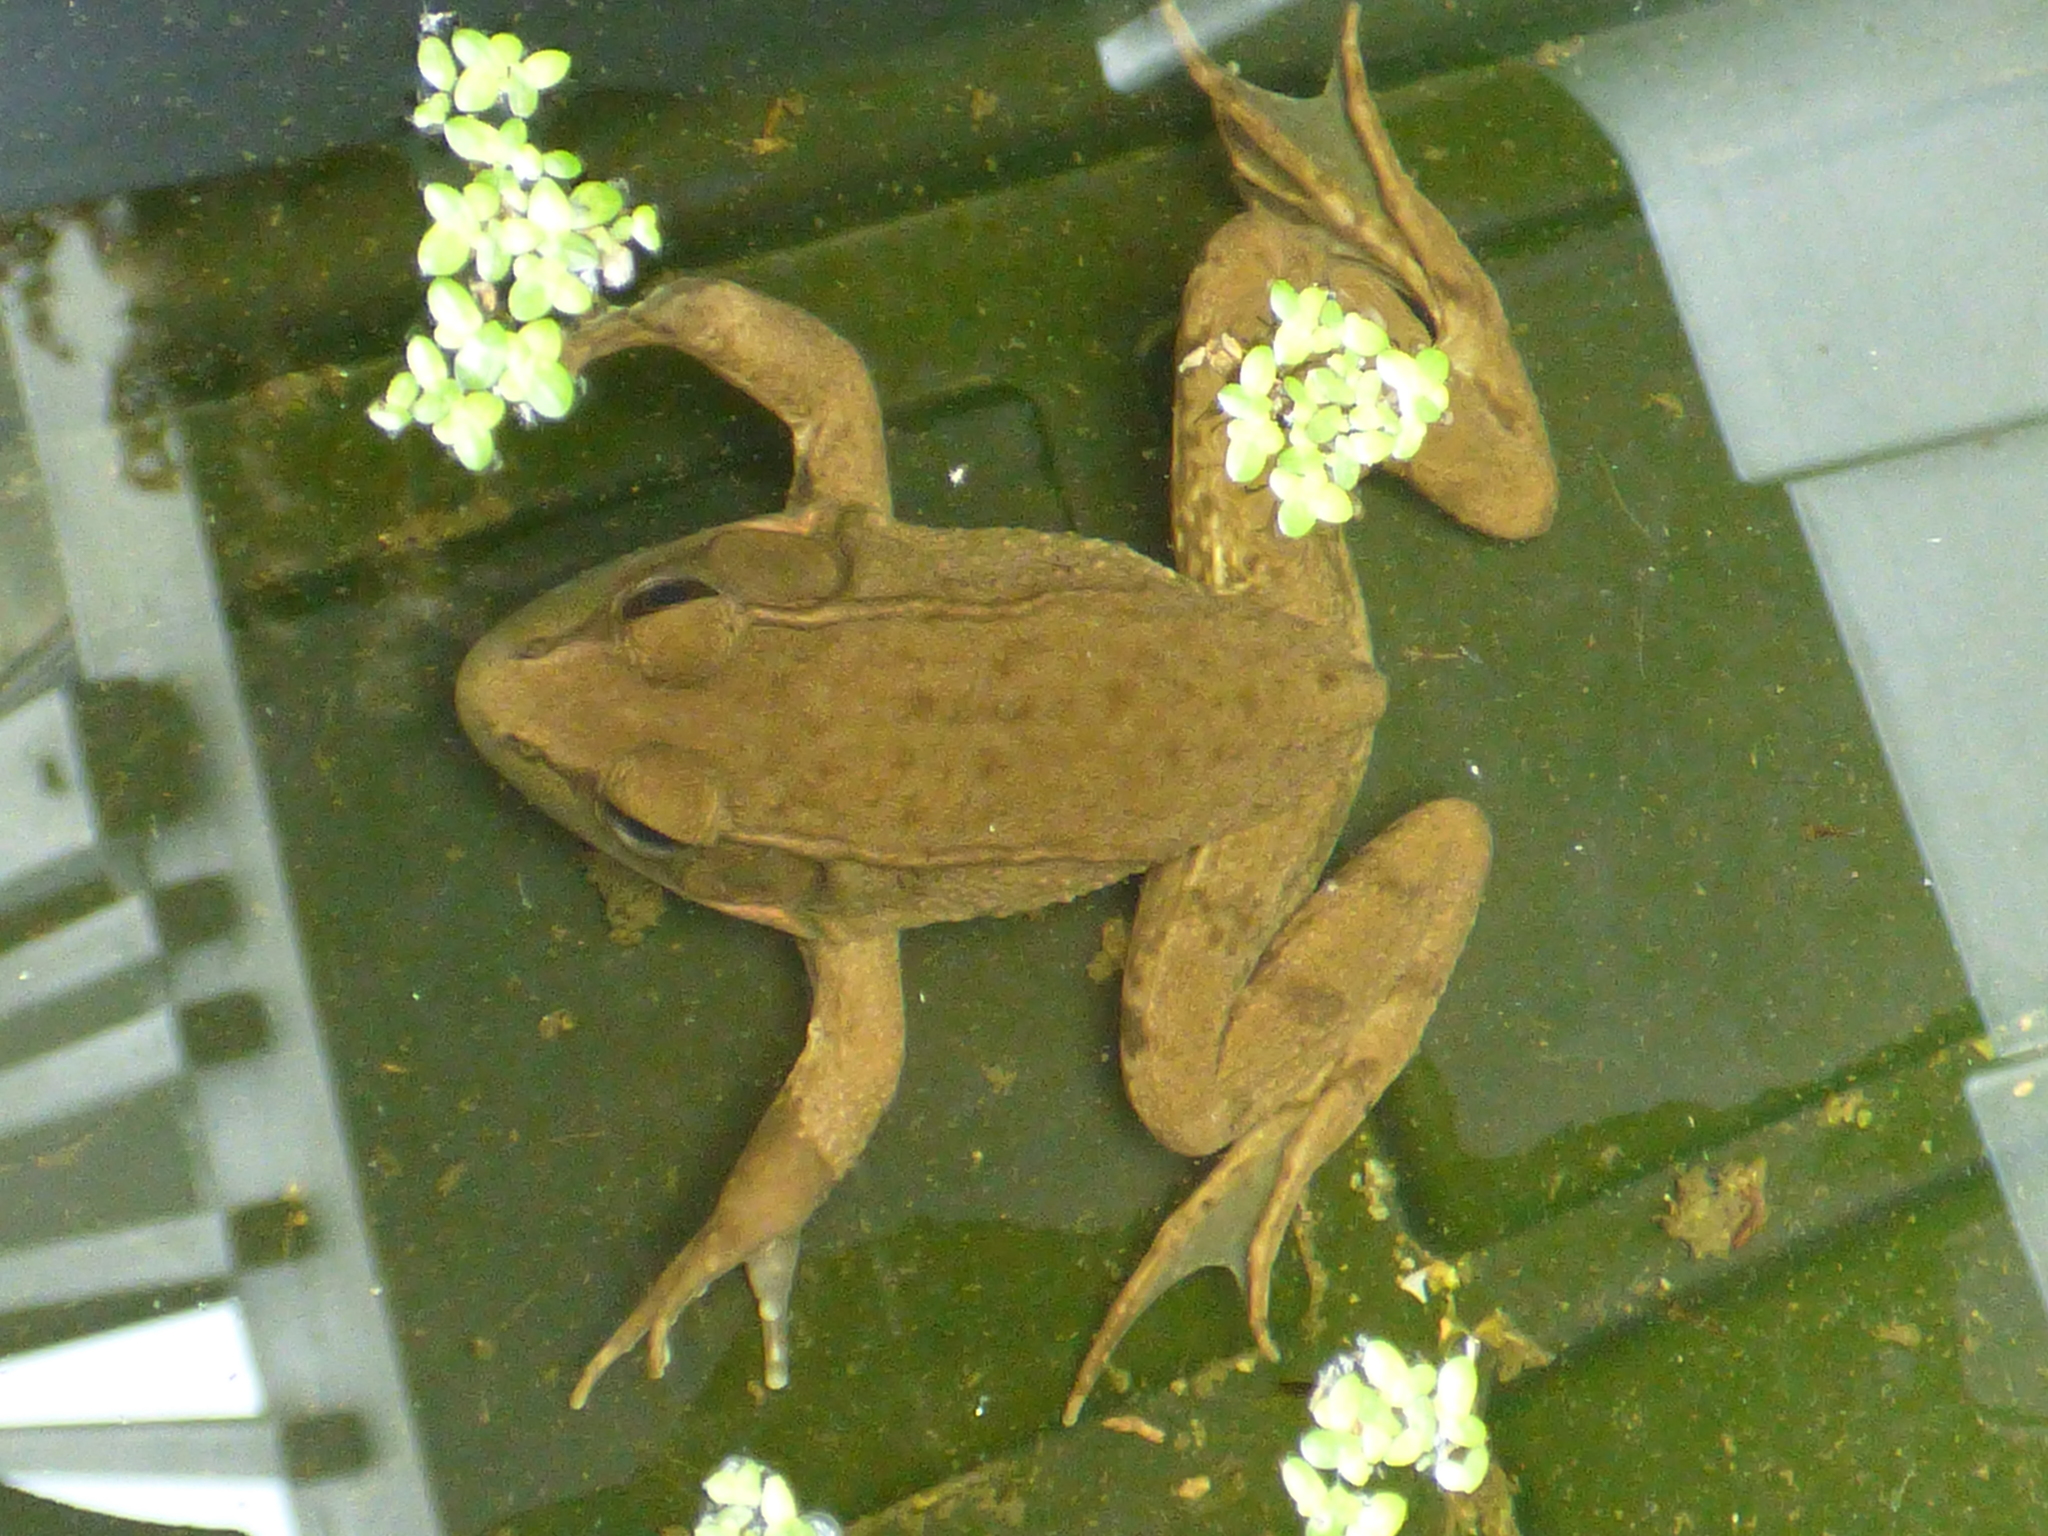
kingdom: Animalia
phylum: Chordata
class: Amphibia
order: Anura
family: Ranidae
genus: Lithobates
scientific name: Lithobates clamitans
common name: Green frog
